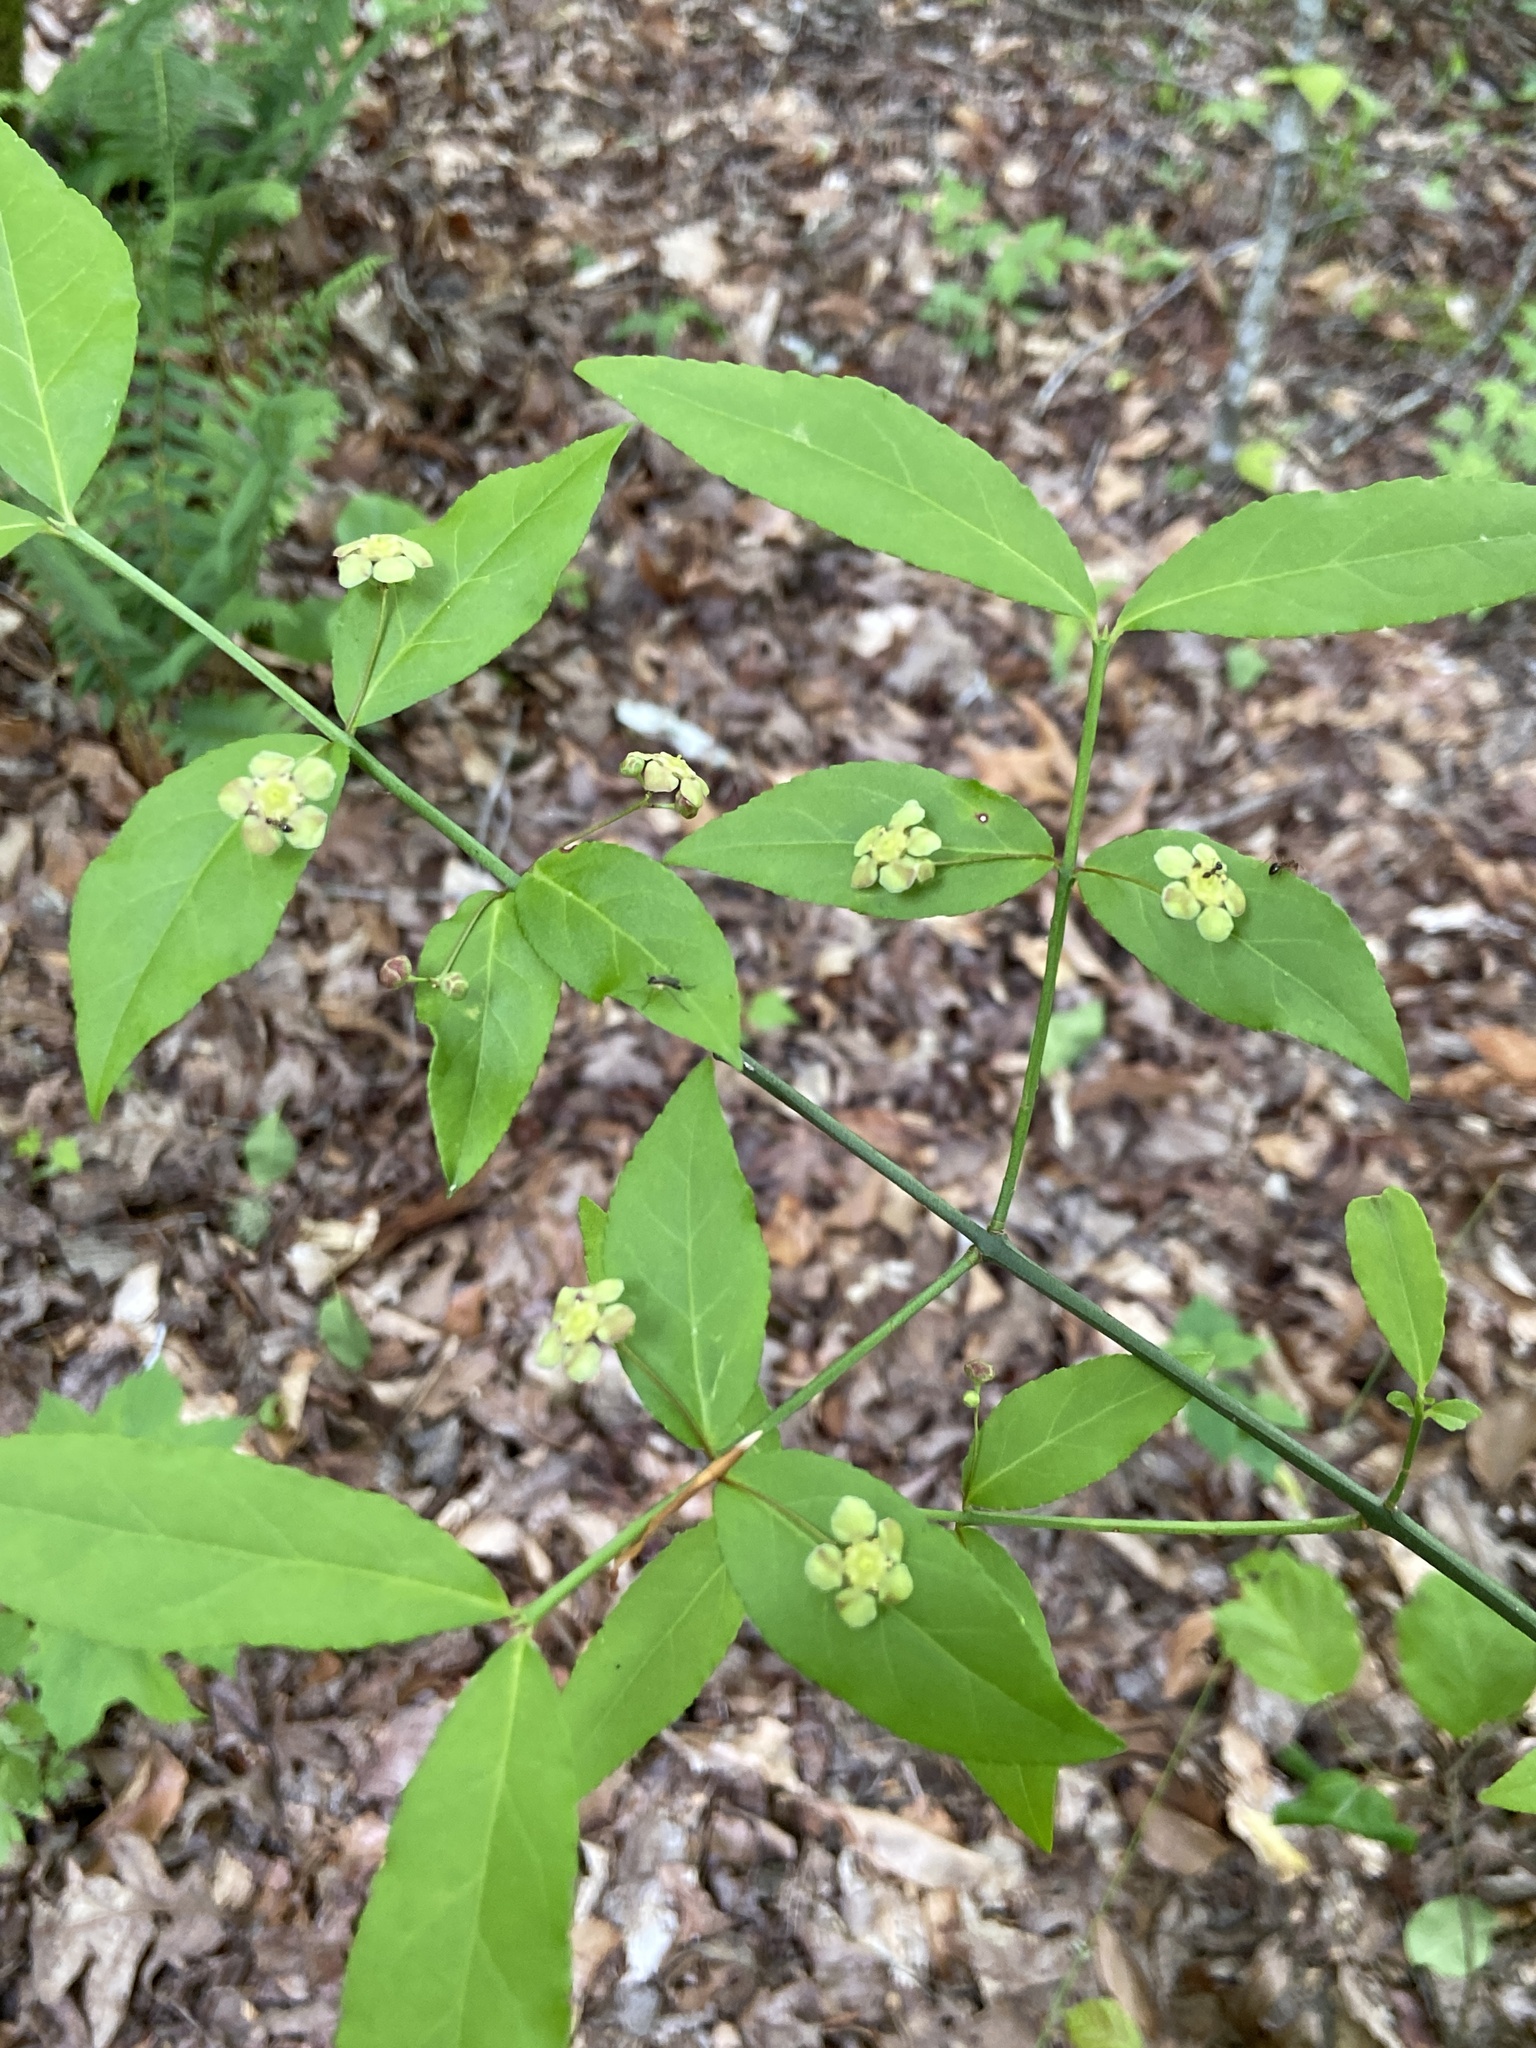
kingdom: Plantae
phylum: Tracheophyta
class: Magnoliopsida
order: Celastrales
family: Celastraceae
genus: Euonymus
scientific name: Euonymus americanus
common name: Bursting-heart
